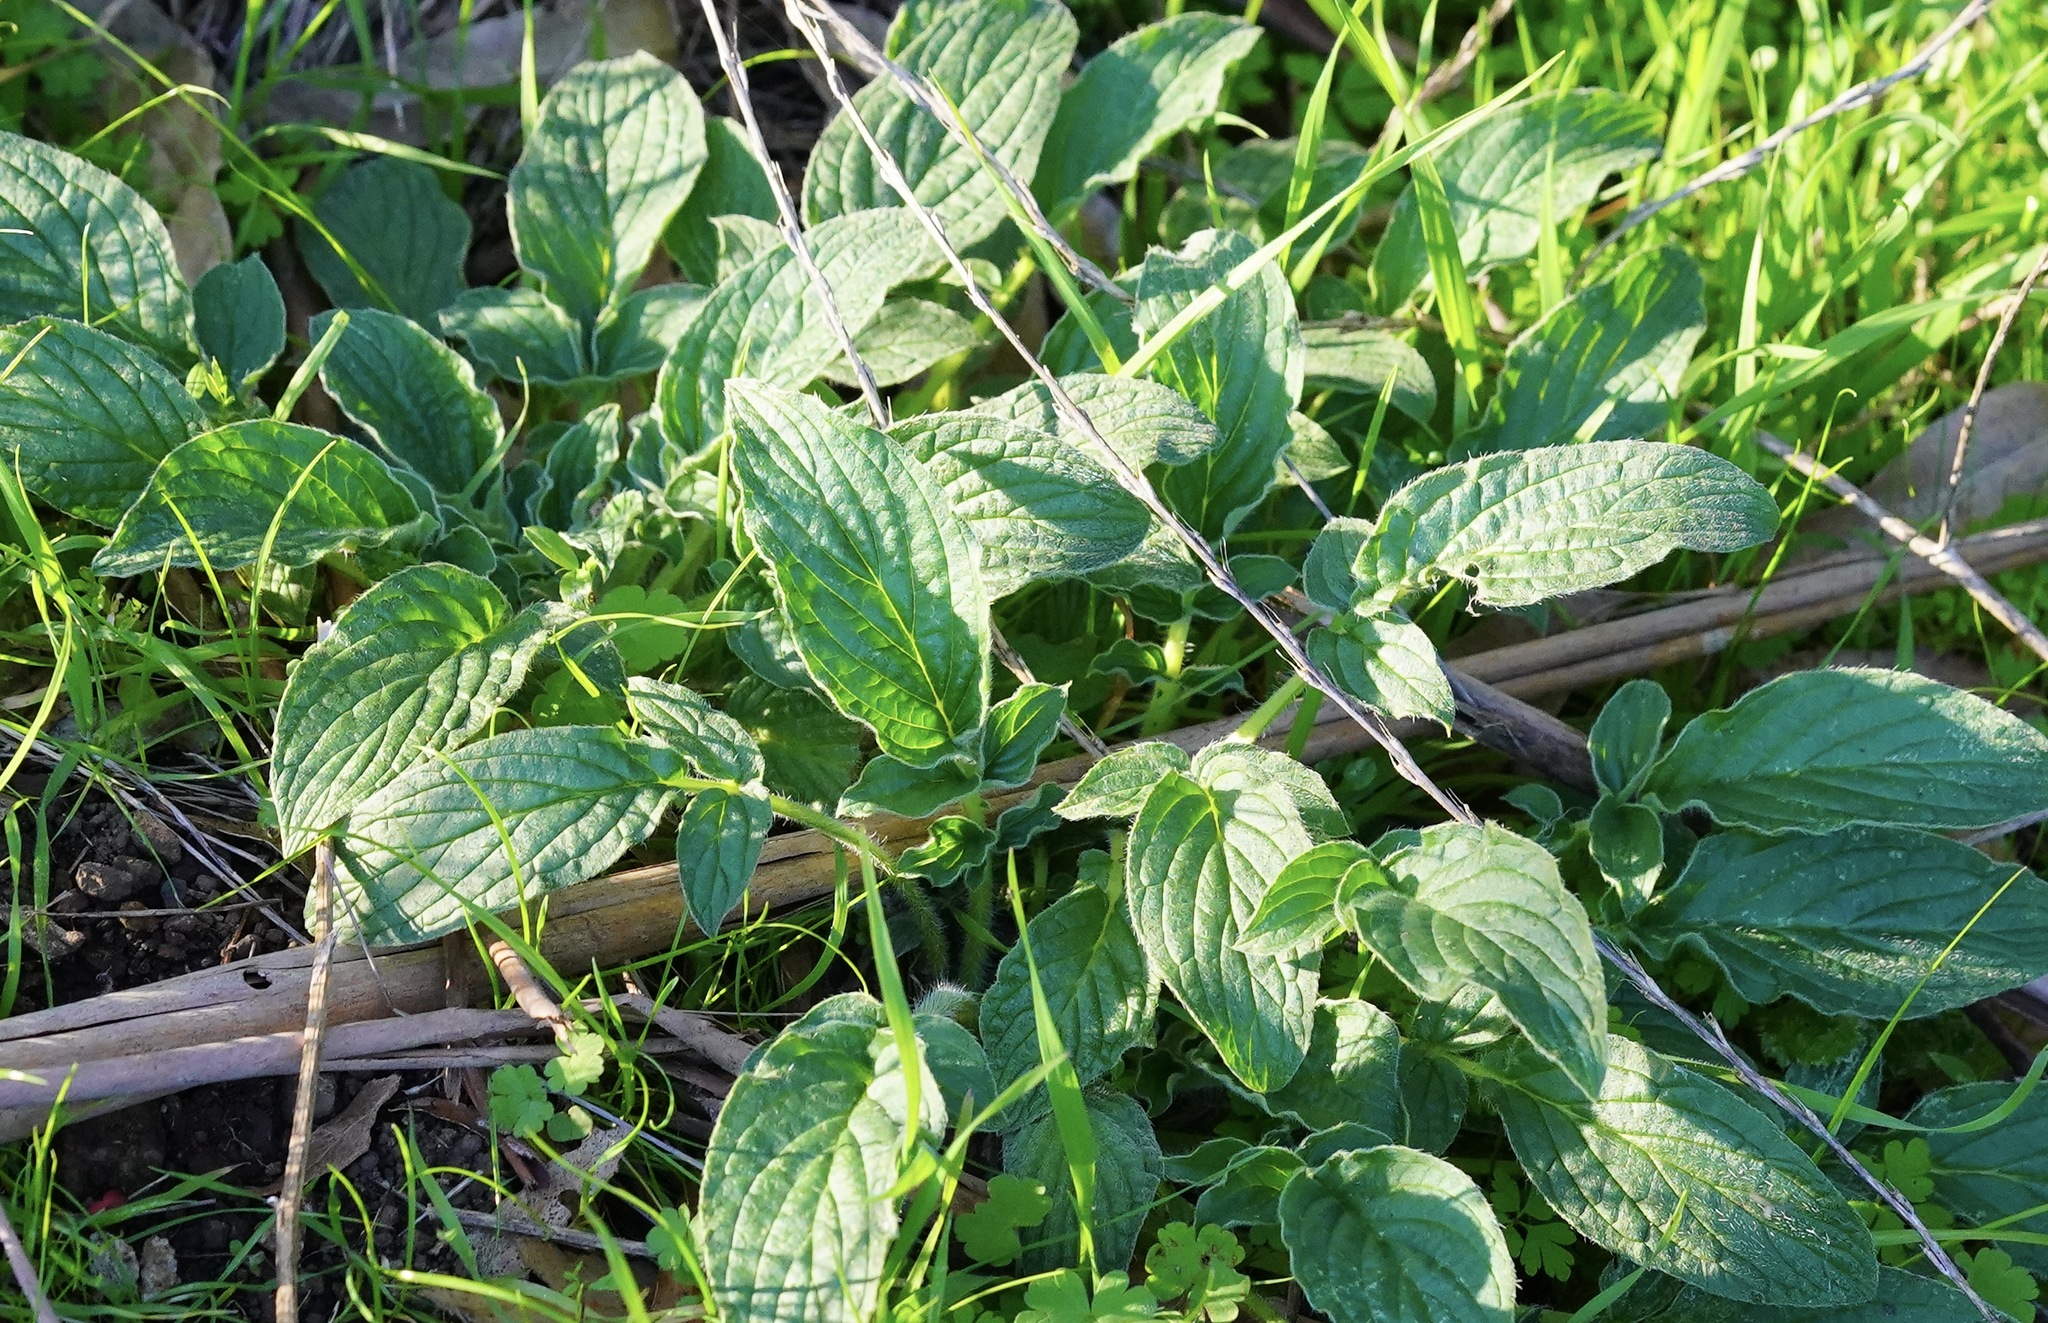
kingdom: Plantae
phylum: Tracheophyta
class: Magnoliopsida
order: Boraginales
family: Hydrophyllaceae
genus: Phacelia
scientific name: Phacelia californica
